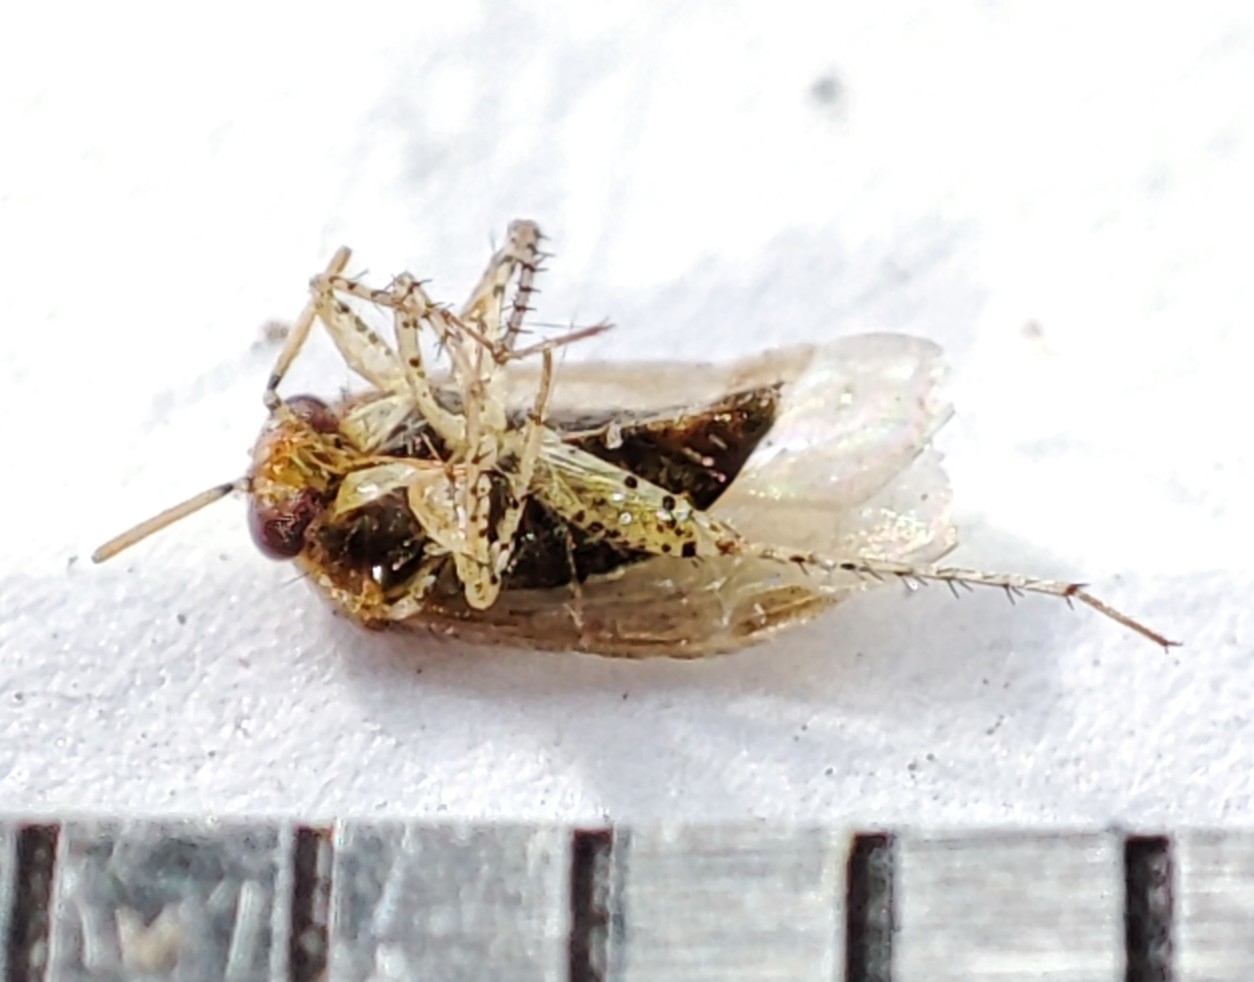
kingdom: Animalia
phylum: Arthropoda
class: Insecta
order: Hemiptera
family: Miridae
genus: Campylomma
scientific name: Campylomma verbasci
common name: Mullein bug
